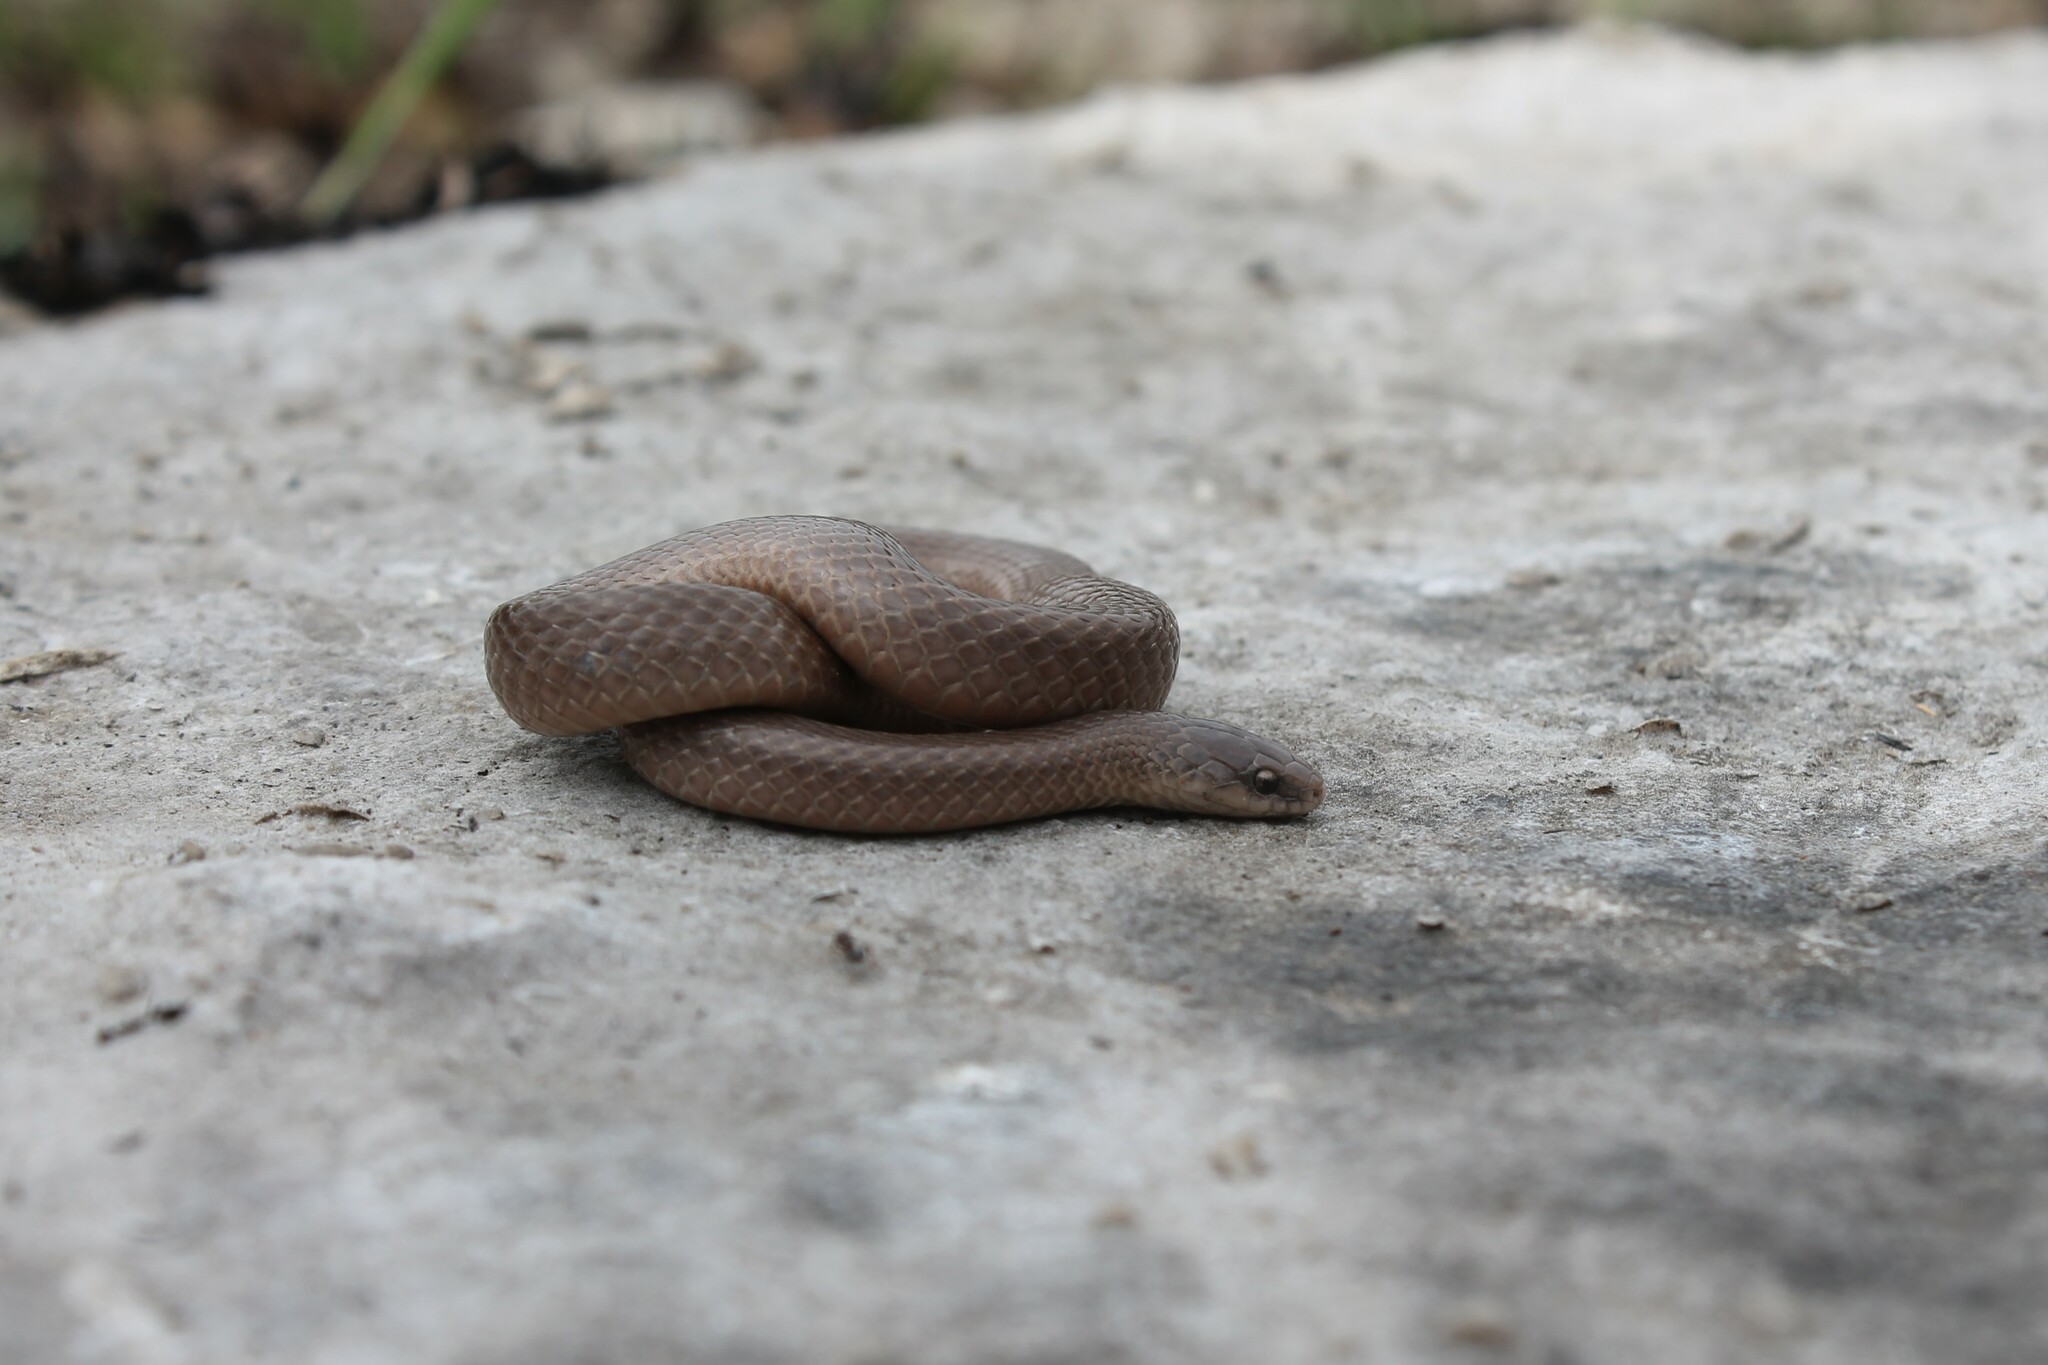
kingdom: Animalia
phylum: Chordata
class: Squamata
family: Colubridae
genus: Virginia
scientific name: Virginia valeriae
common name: Smooth earth snake
